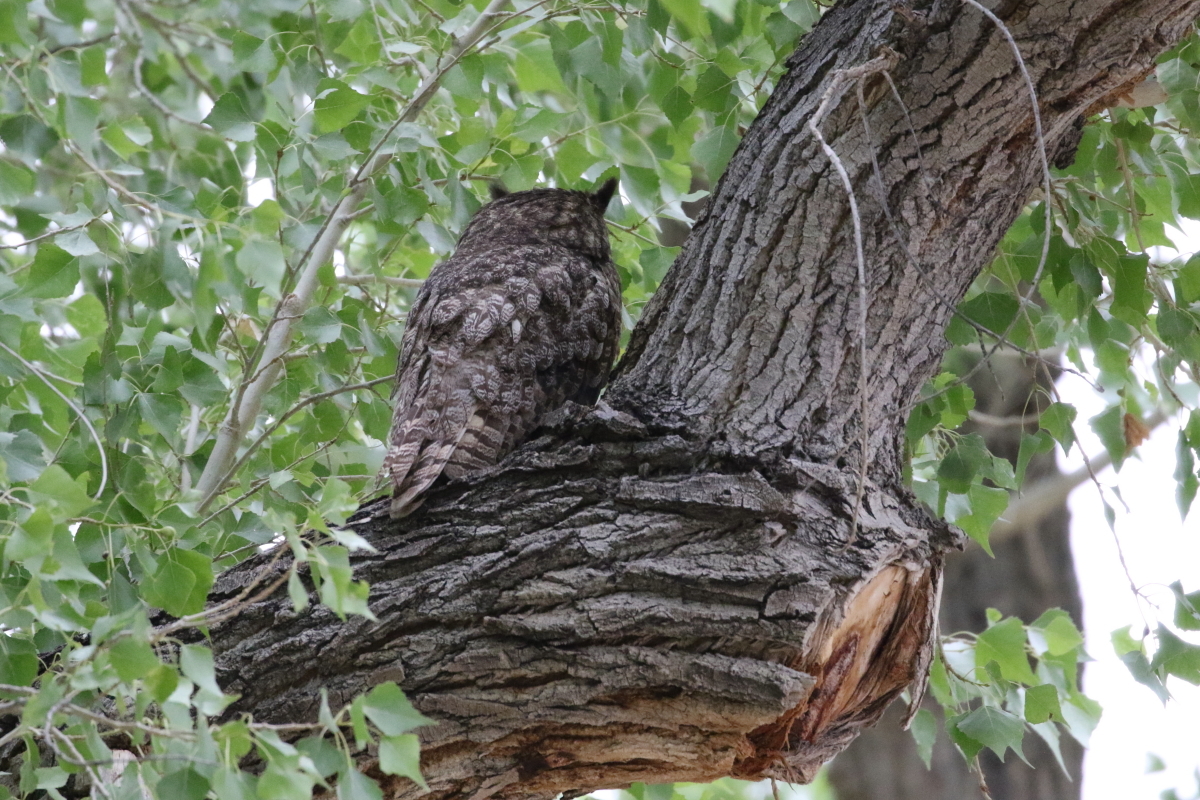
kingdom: Animalia
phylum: Chordata
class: Aves
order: Strigiformes
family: Strigidae
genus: Bubo
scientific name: Bubo virginianus
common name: Great horned owl
